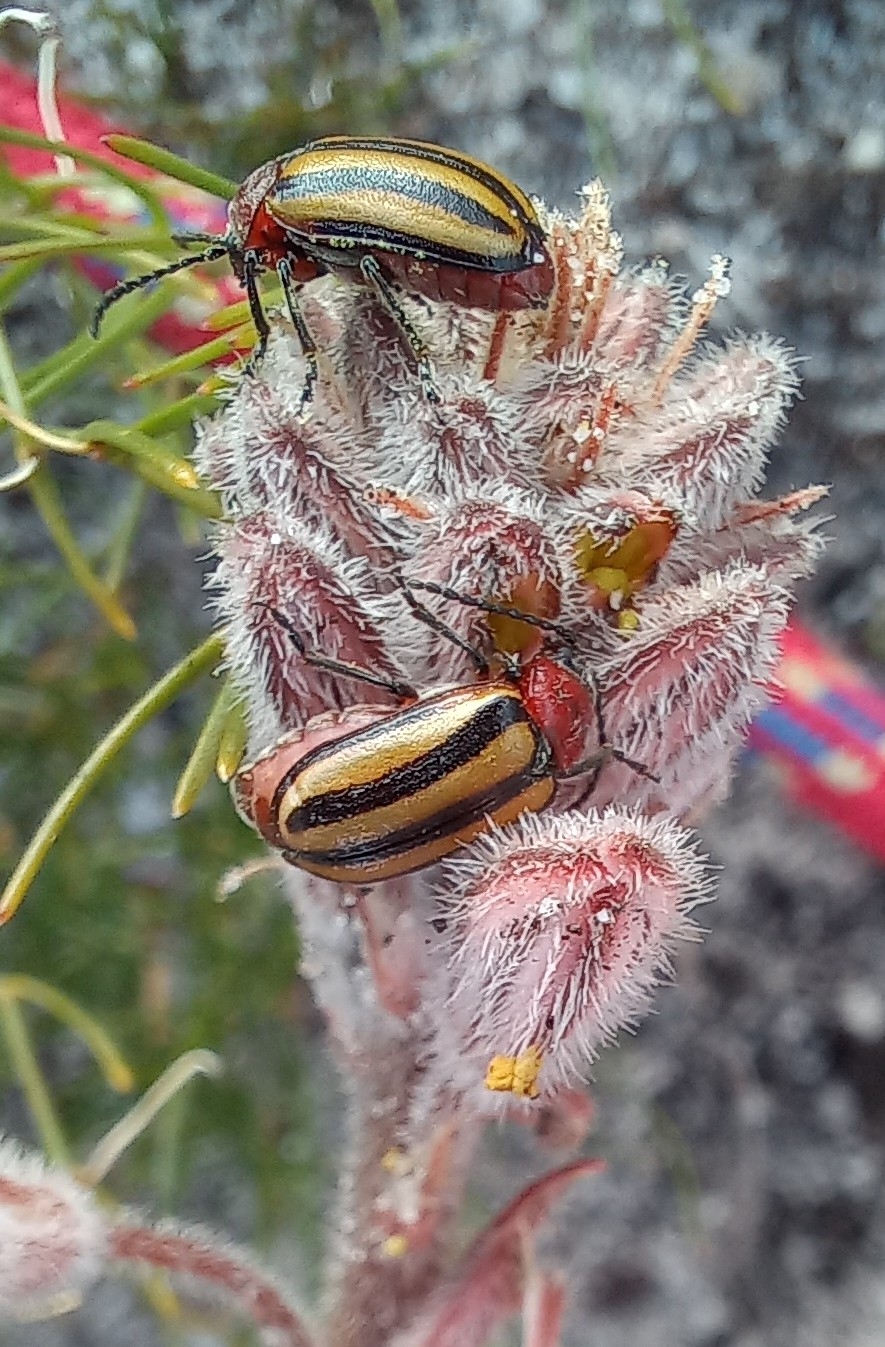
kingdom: Animalia
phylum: Arthropoda
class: Insecta
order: Coleoptera
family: Chrysomelidae
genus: Trichocneorane
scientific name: Trichocneorane
